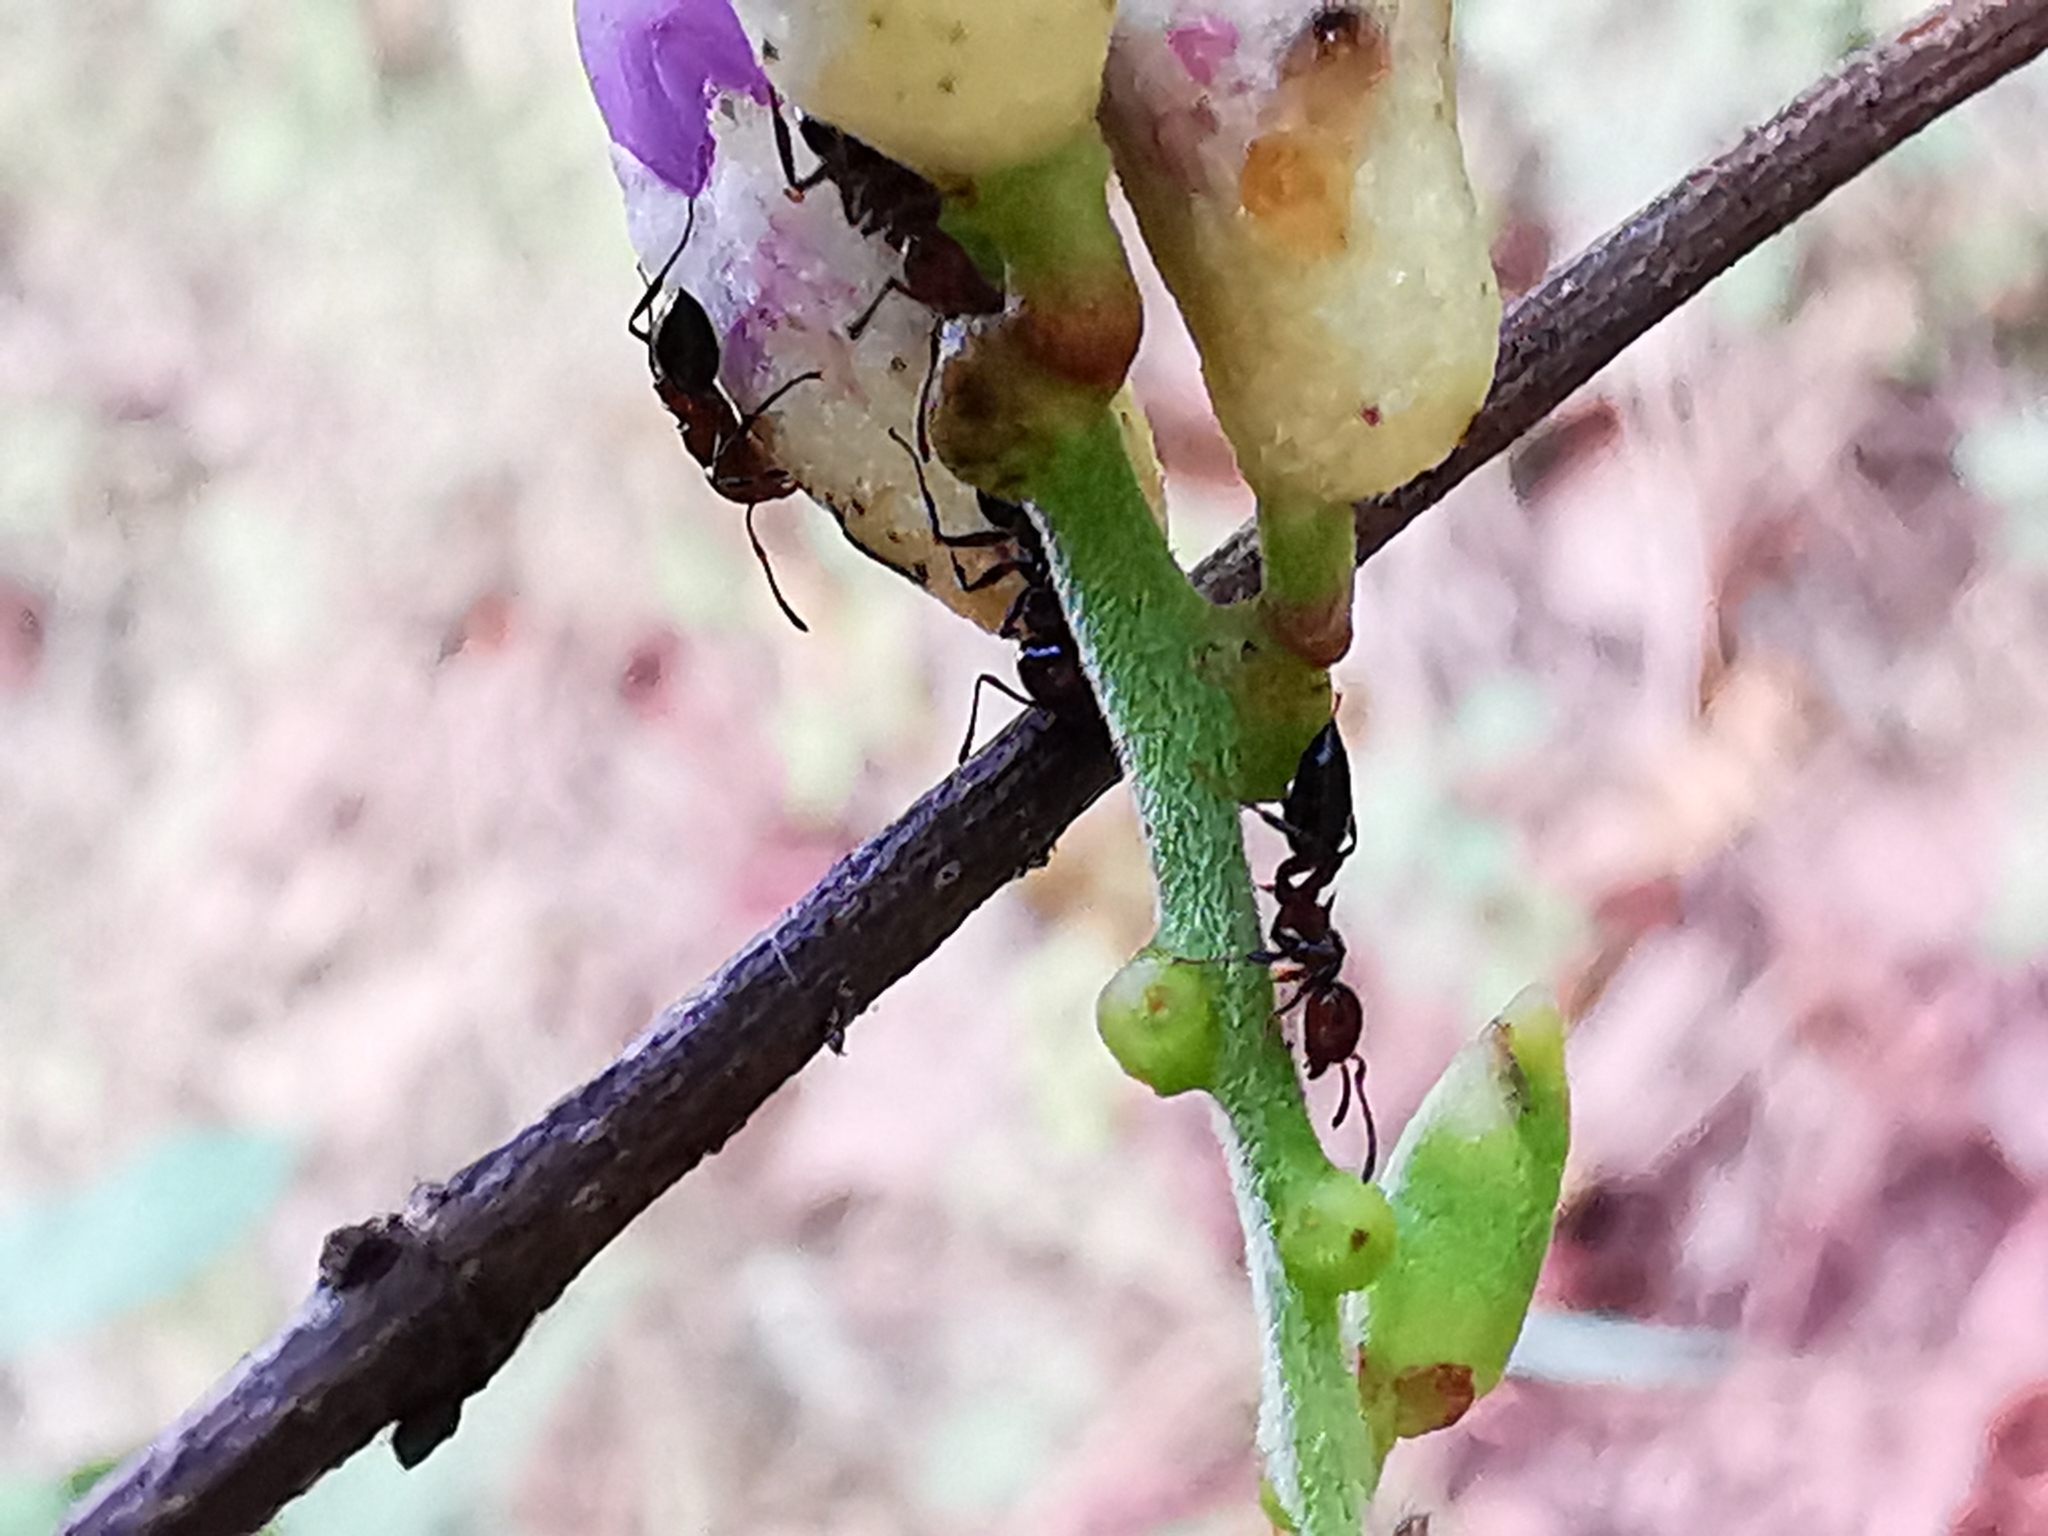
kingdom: Animalia
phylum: Arthropoda
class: Insecta
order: Hymenoptera
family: Formicidae
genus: Crematogaster
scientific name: Crematogaster laeviuscula
